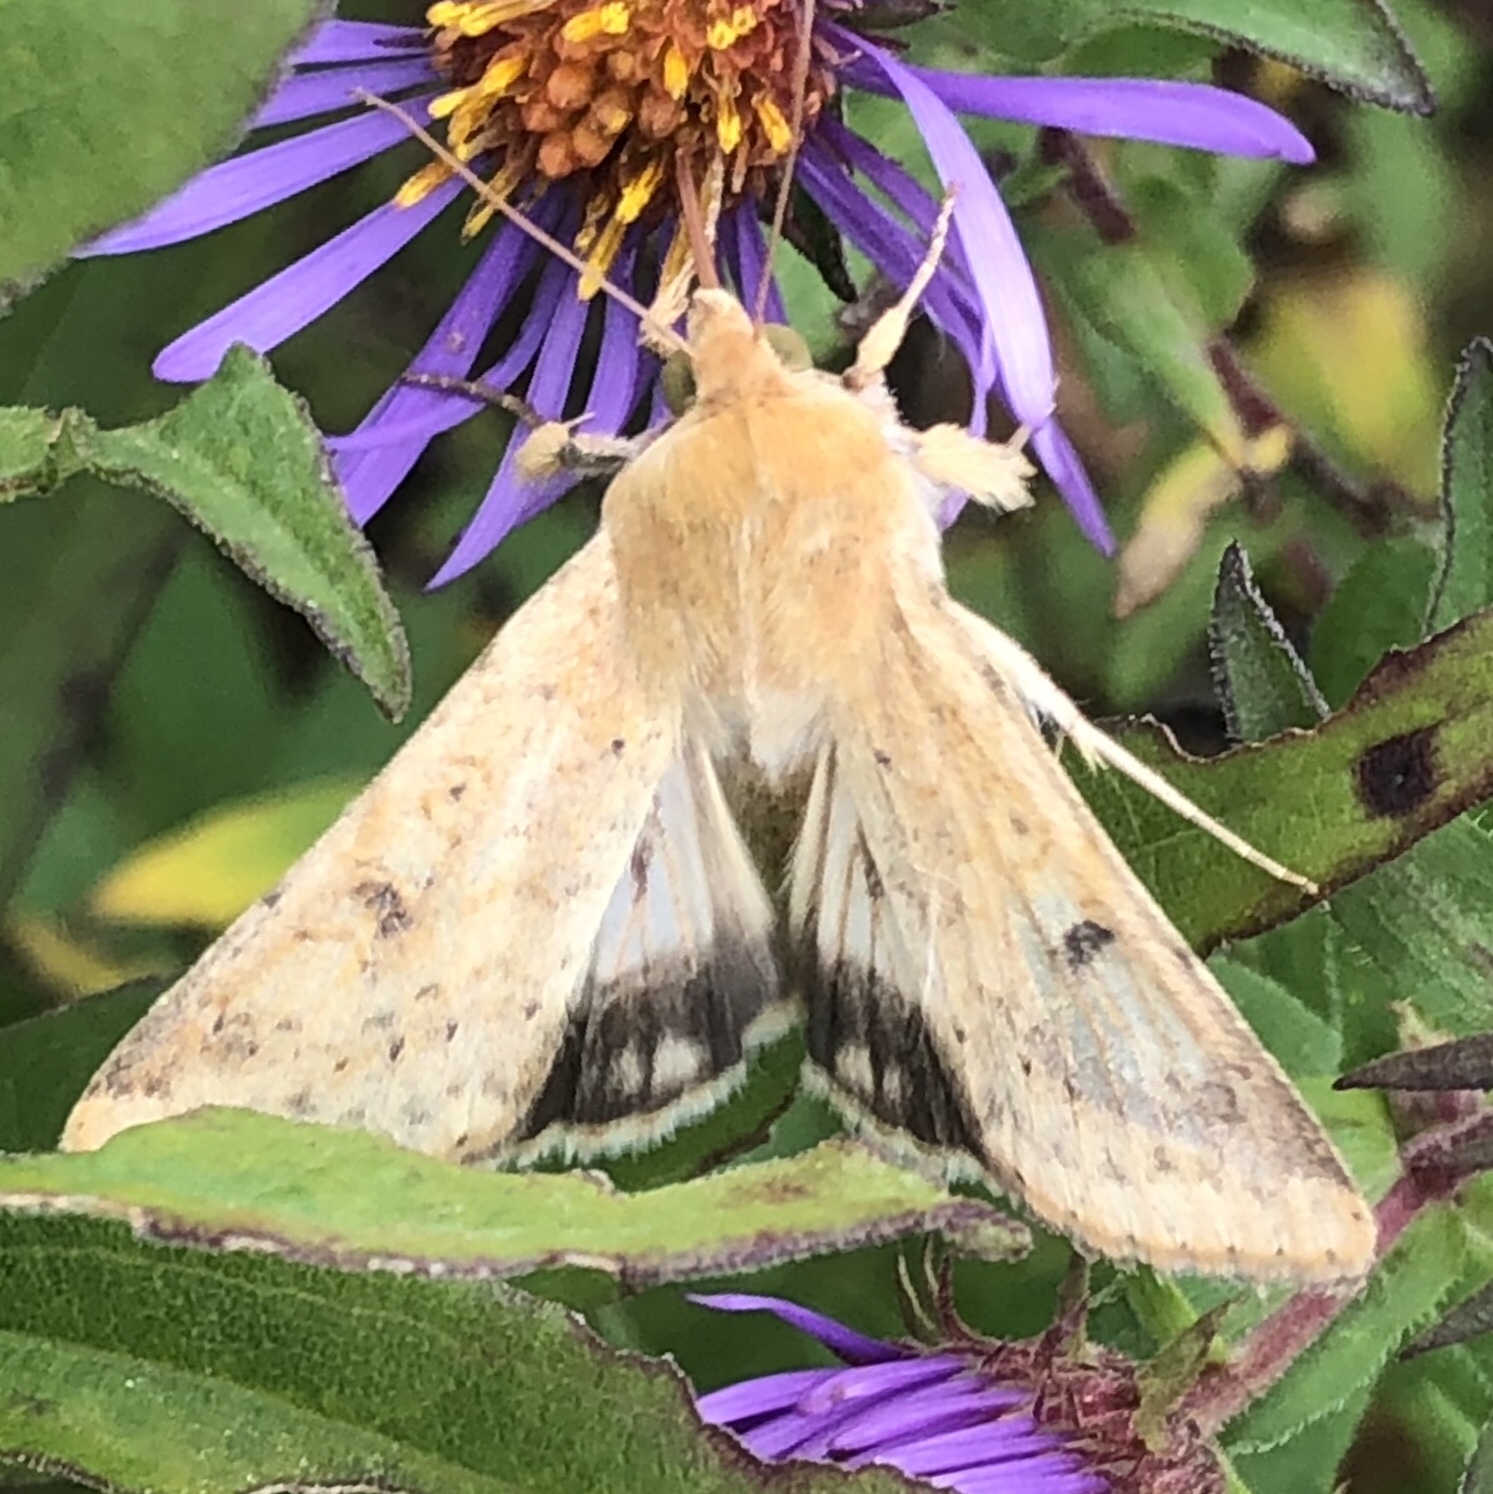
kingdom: Animalia
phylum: Arthropoda
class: Insecta
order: Lepidoptera
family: Noctuidae
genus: Helicoverpa
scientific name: Helicoverpa zea
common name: Bollworm
